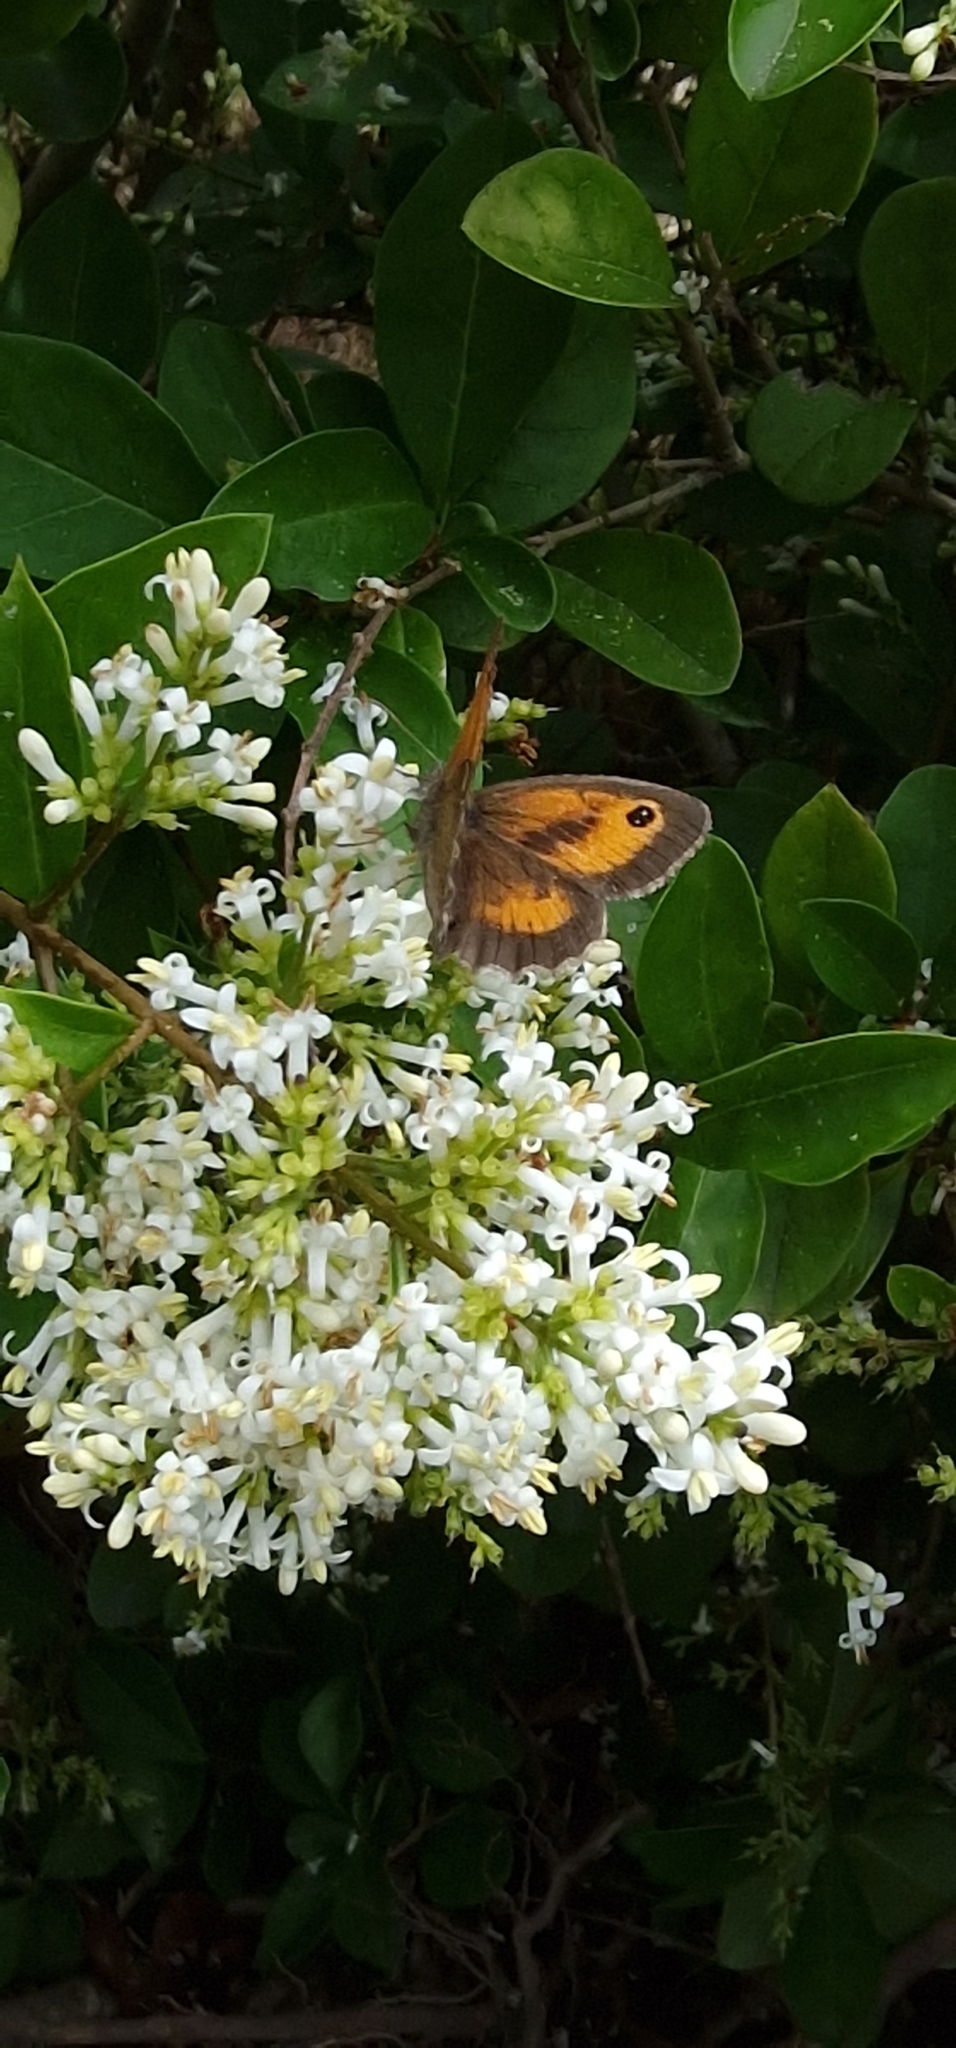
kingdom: Animalia
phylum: Arthropoda
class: Insecta
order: Lepidoptera
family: Nymphalidae
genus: Pyronia
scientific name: Pyronia tithonus
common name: Gatekeeper
